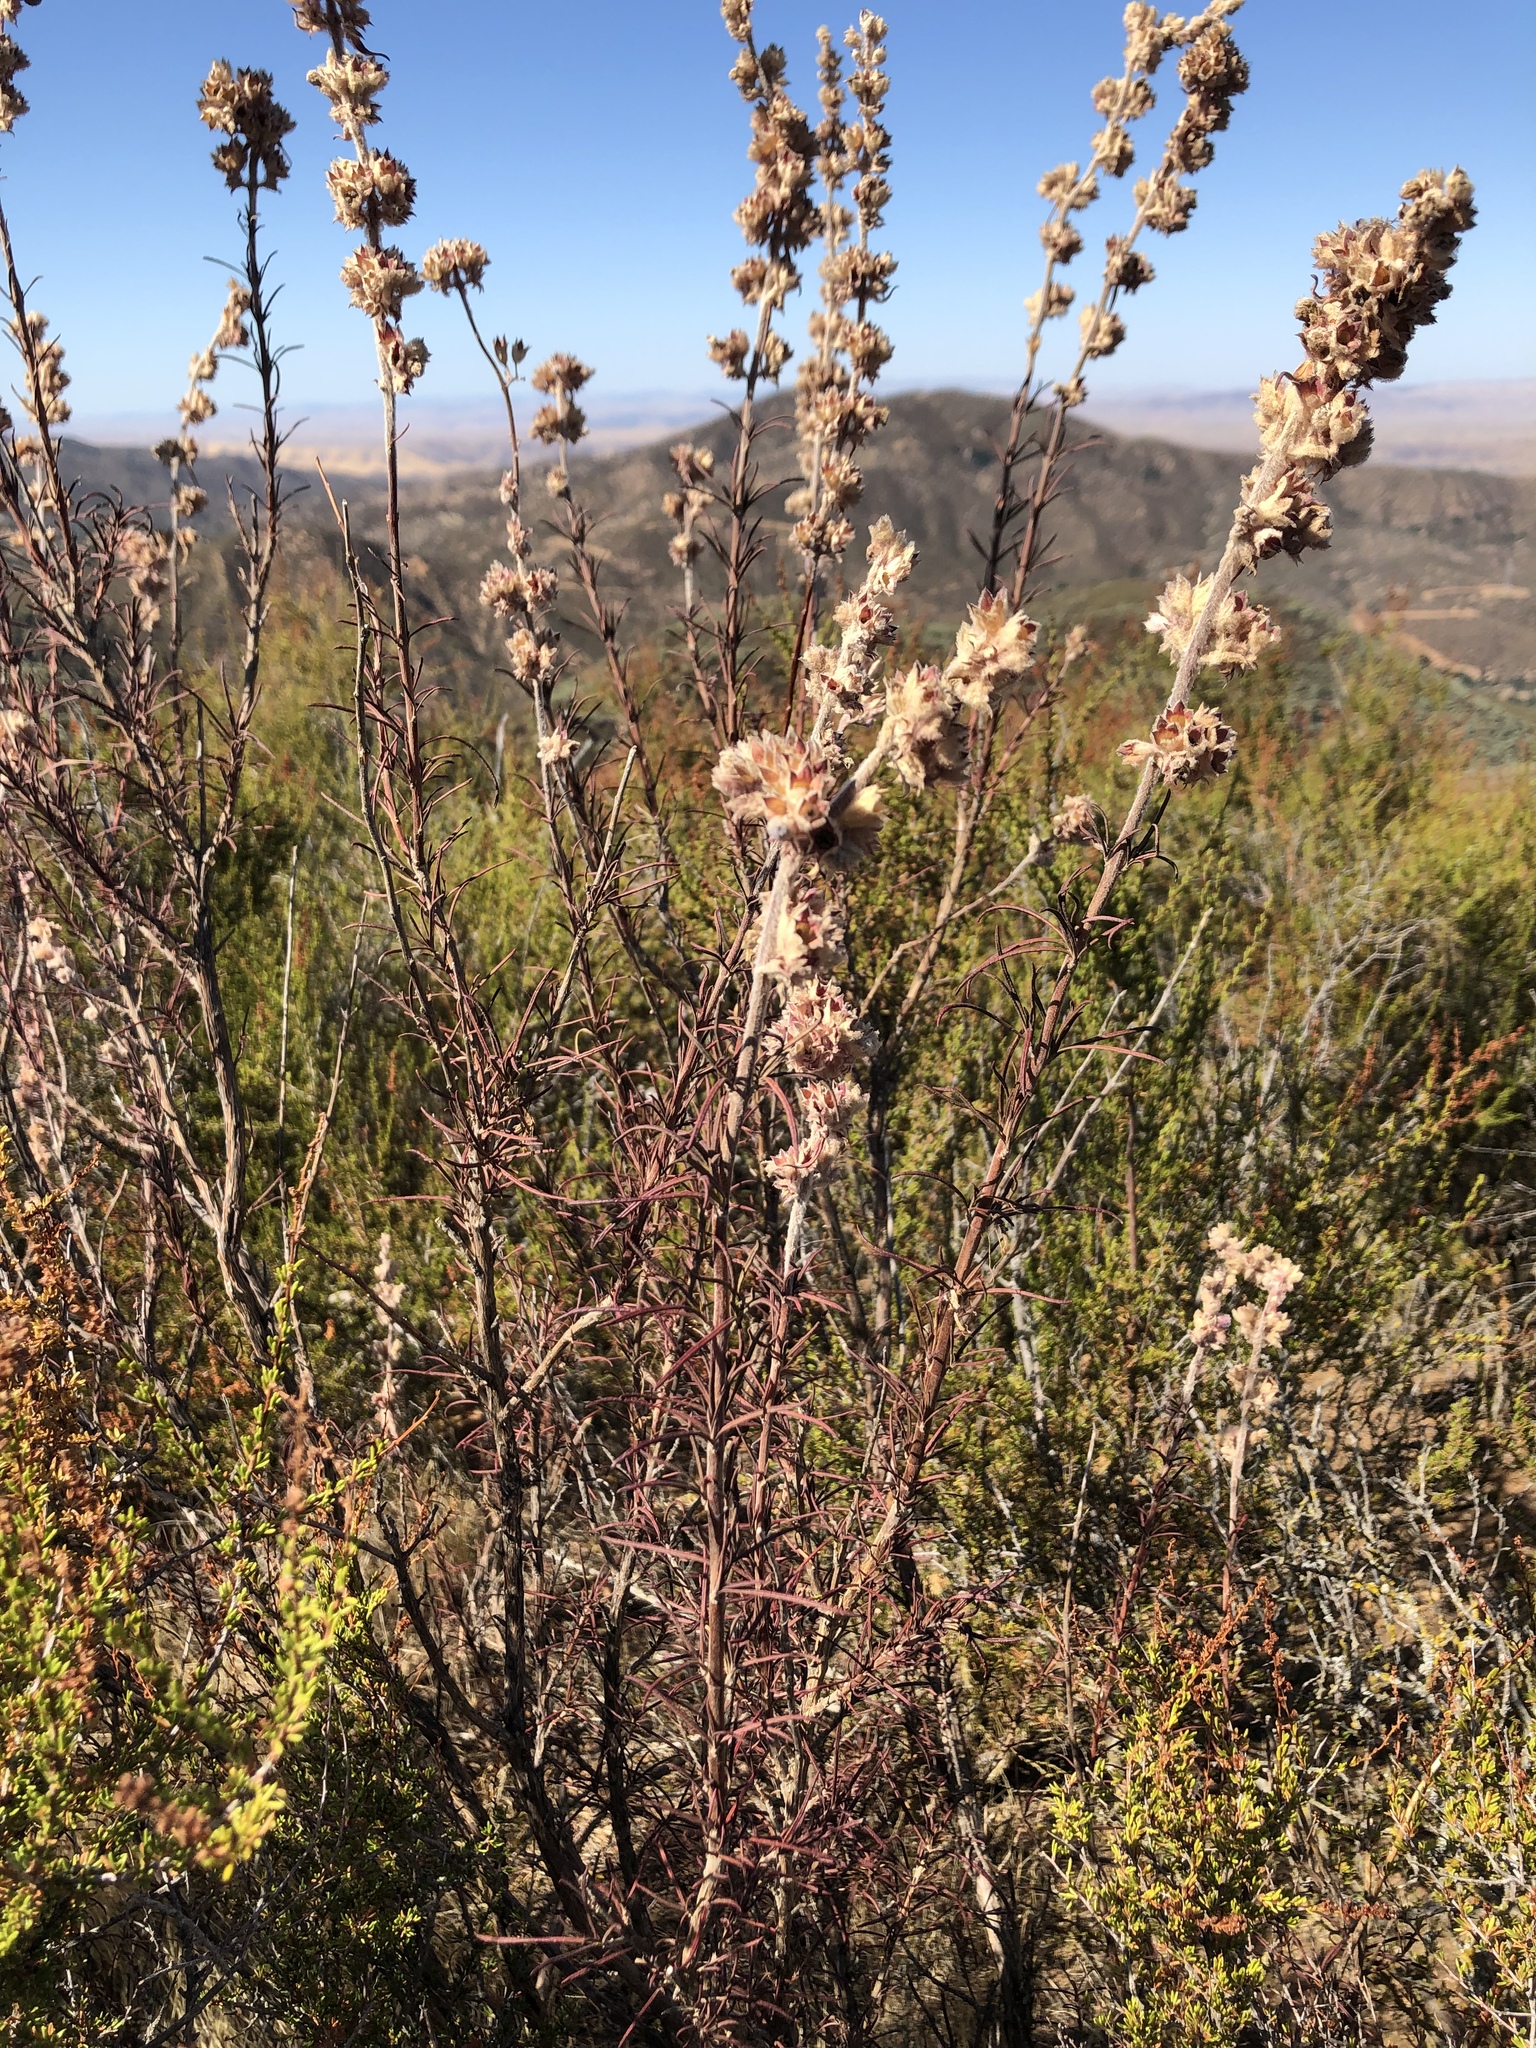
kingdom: Plantae
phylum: Tracheophyta
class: Magnoliopsida
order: Lamiales
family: Lamiaceae
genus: Trichostema
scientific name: Trichostema lanatum
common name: Woolly bluecurls
